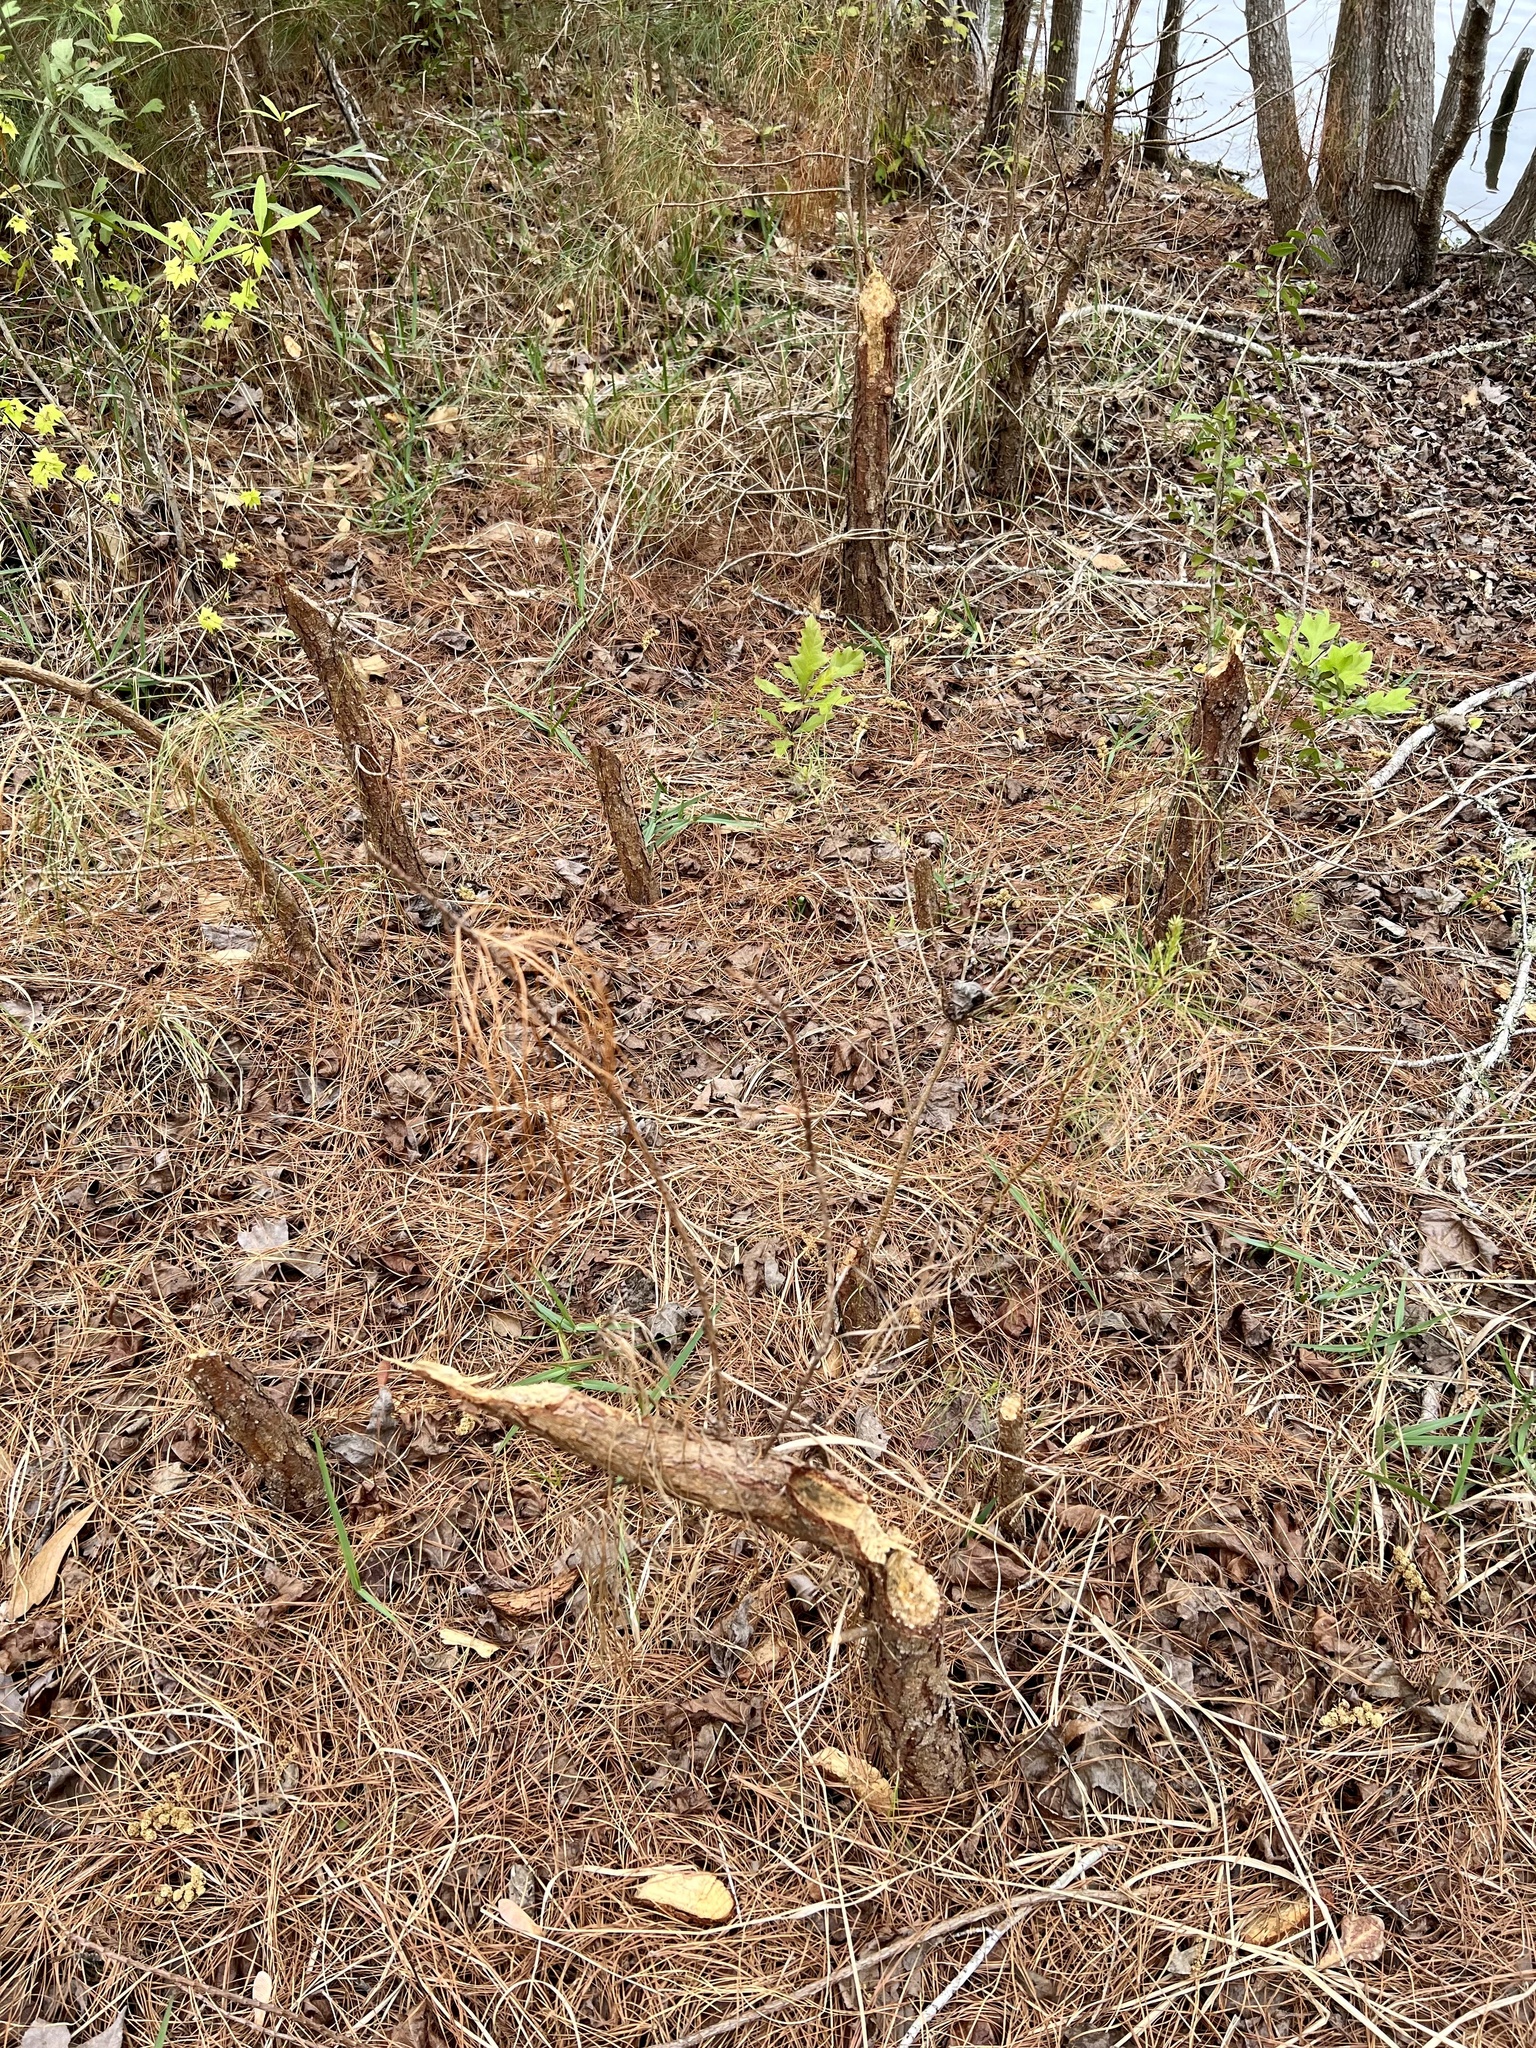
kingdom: Animalia
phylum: Chordata
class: Mammalia
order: Rodentia
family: Castoridae
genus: Castor
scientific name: Castor canadensis
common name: American beaver
